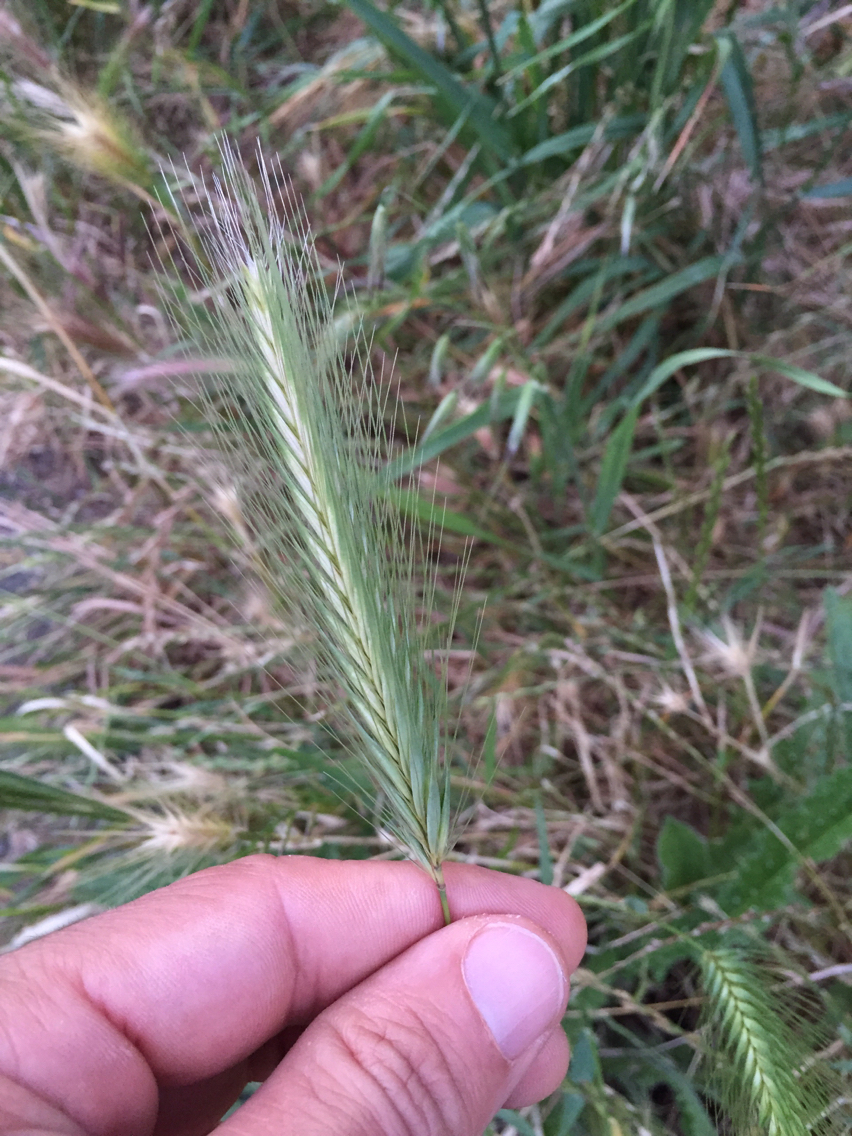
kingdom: Plantae
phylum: Tracheophyta
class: Liliopsida
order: Poales
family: Poaceae
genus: Hordeum
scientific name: Hordeum murinum
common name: Wall barley
